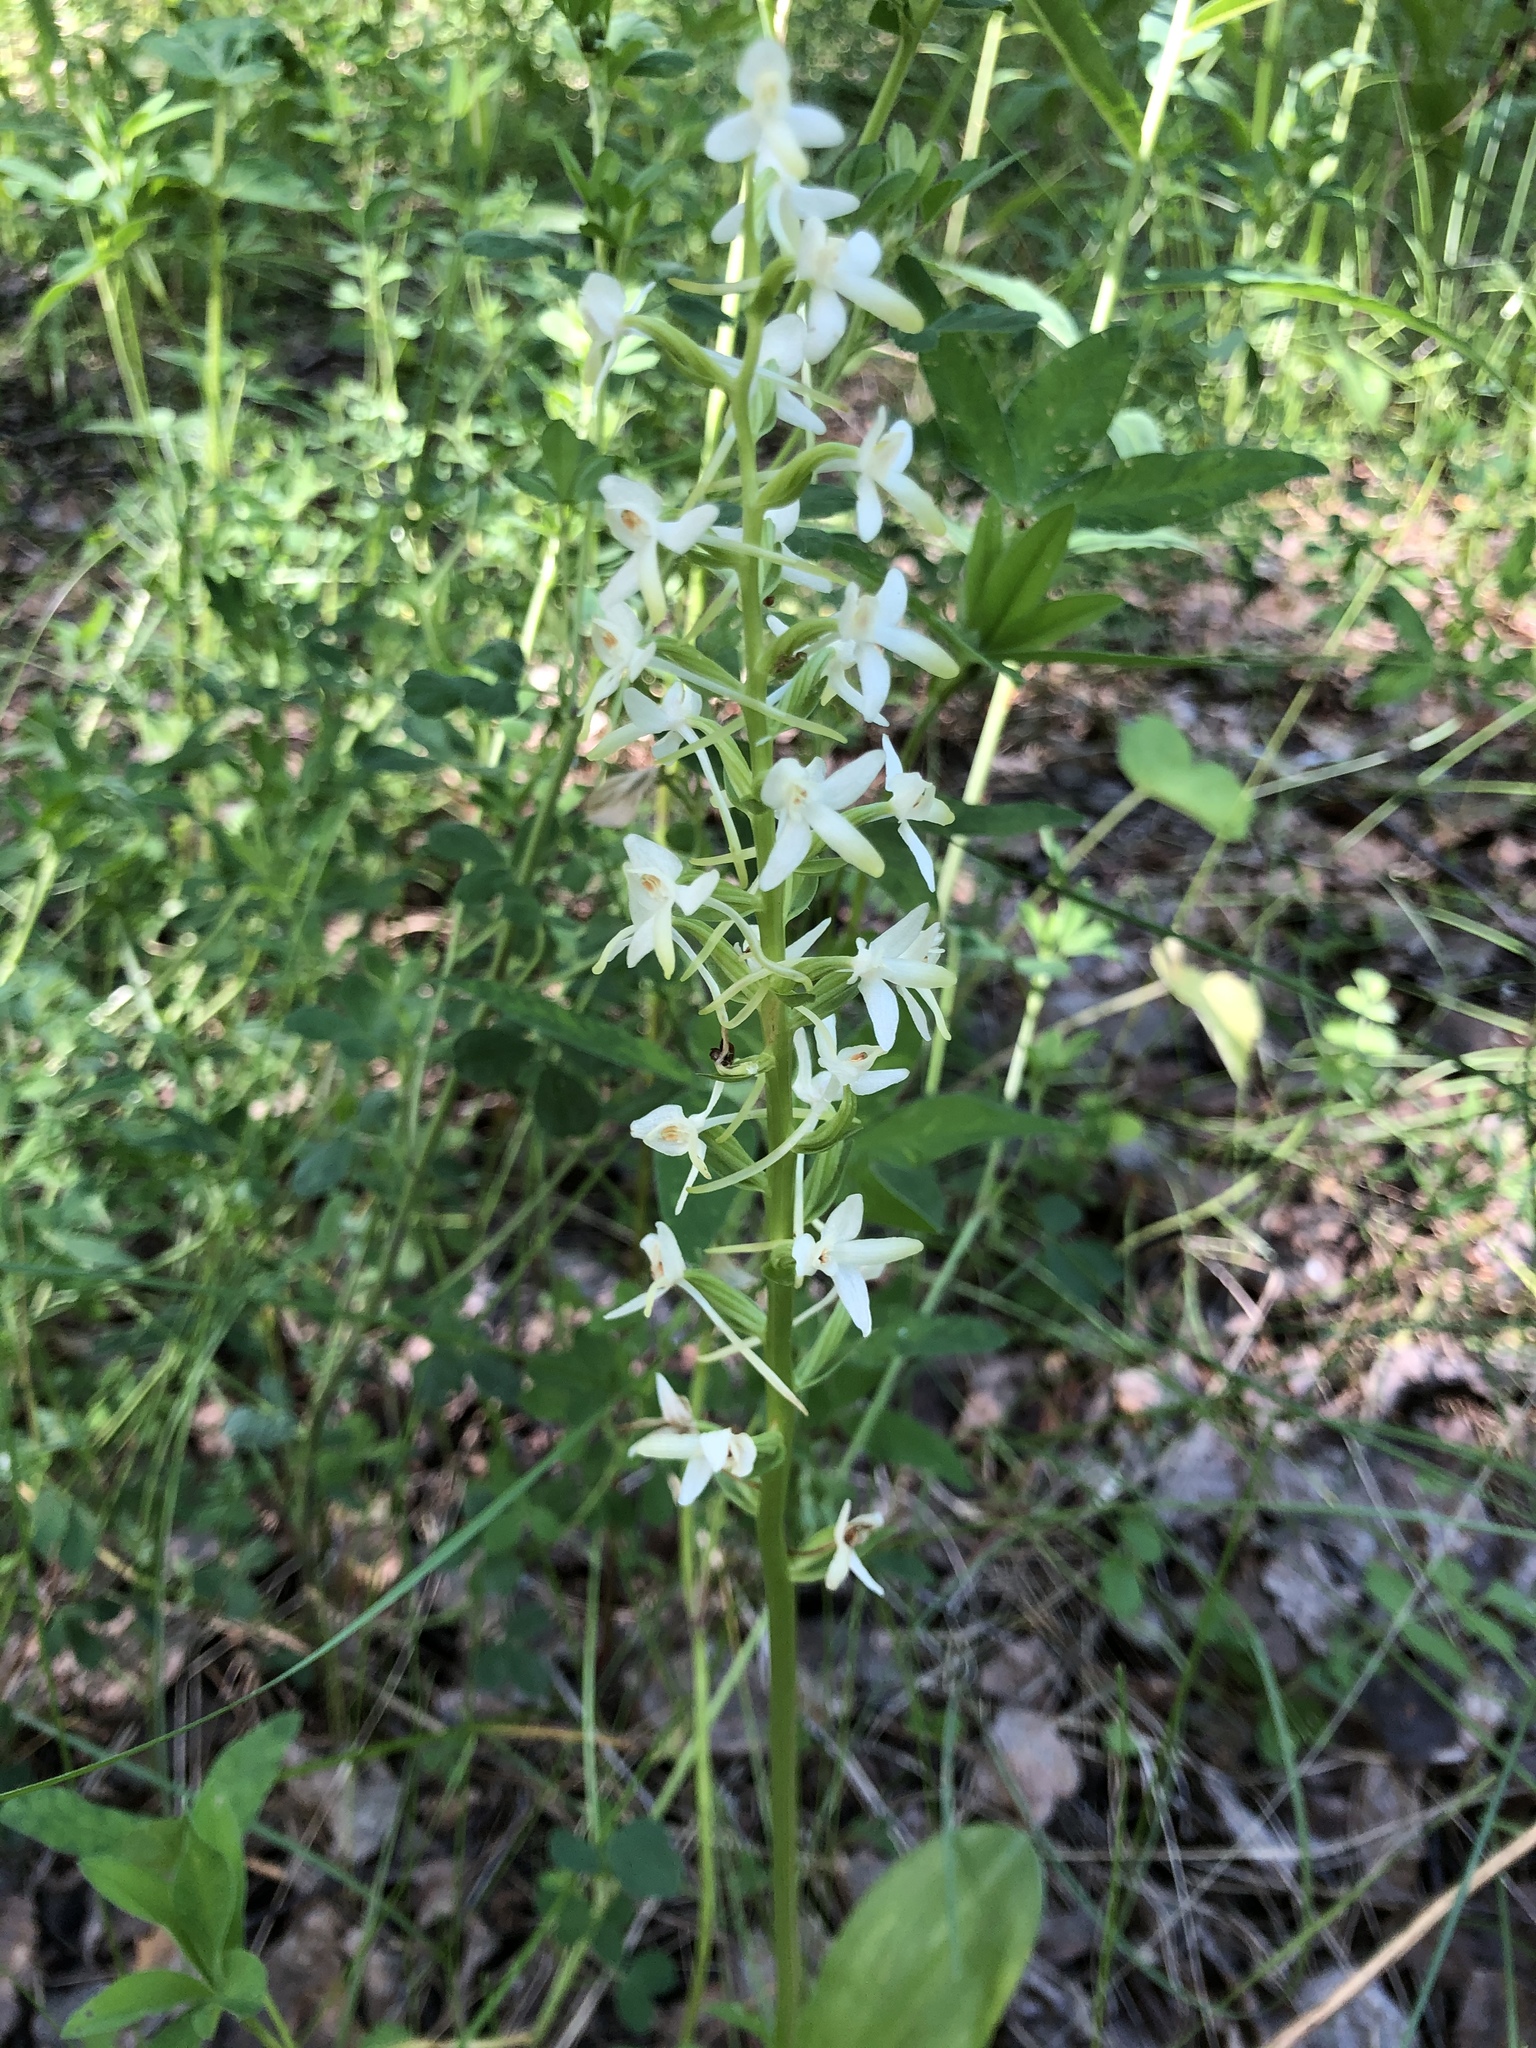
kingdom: Plantae
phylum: Tracheophyta
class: Liliopsida
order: Asparagales
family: Orchidaceae
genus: Platanthera
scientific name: Platanthera bifolia
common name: Lesser butterfly-orchid
